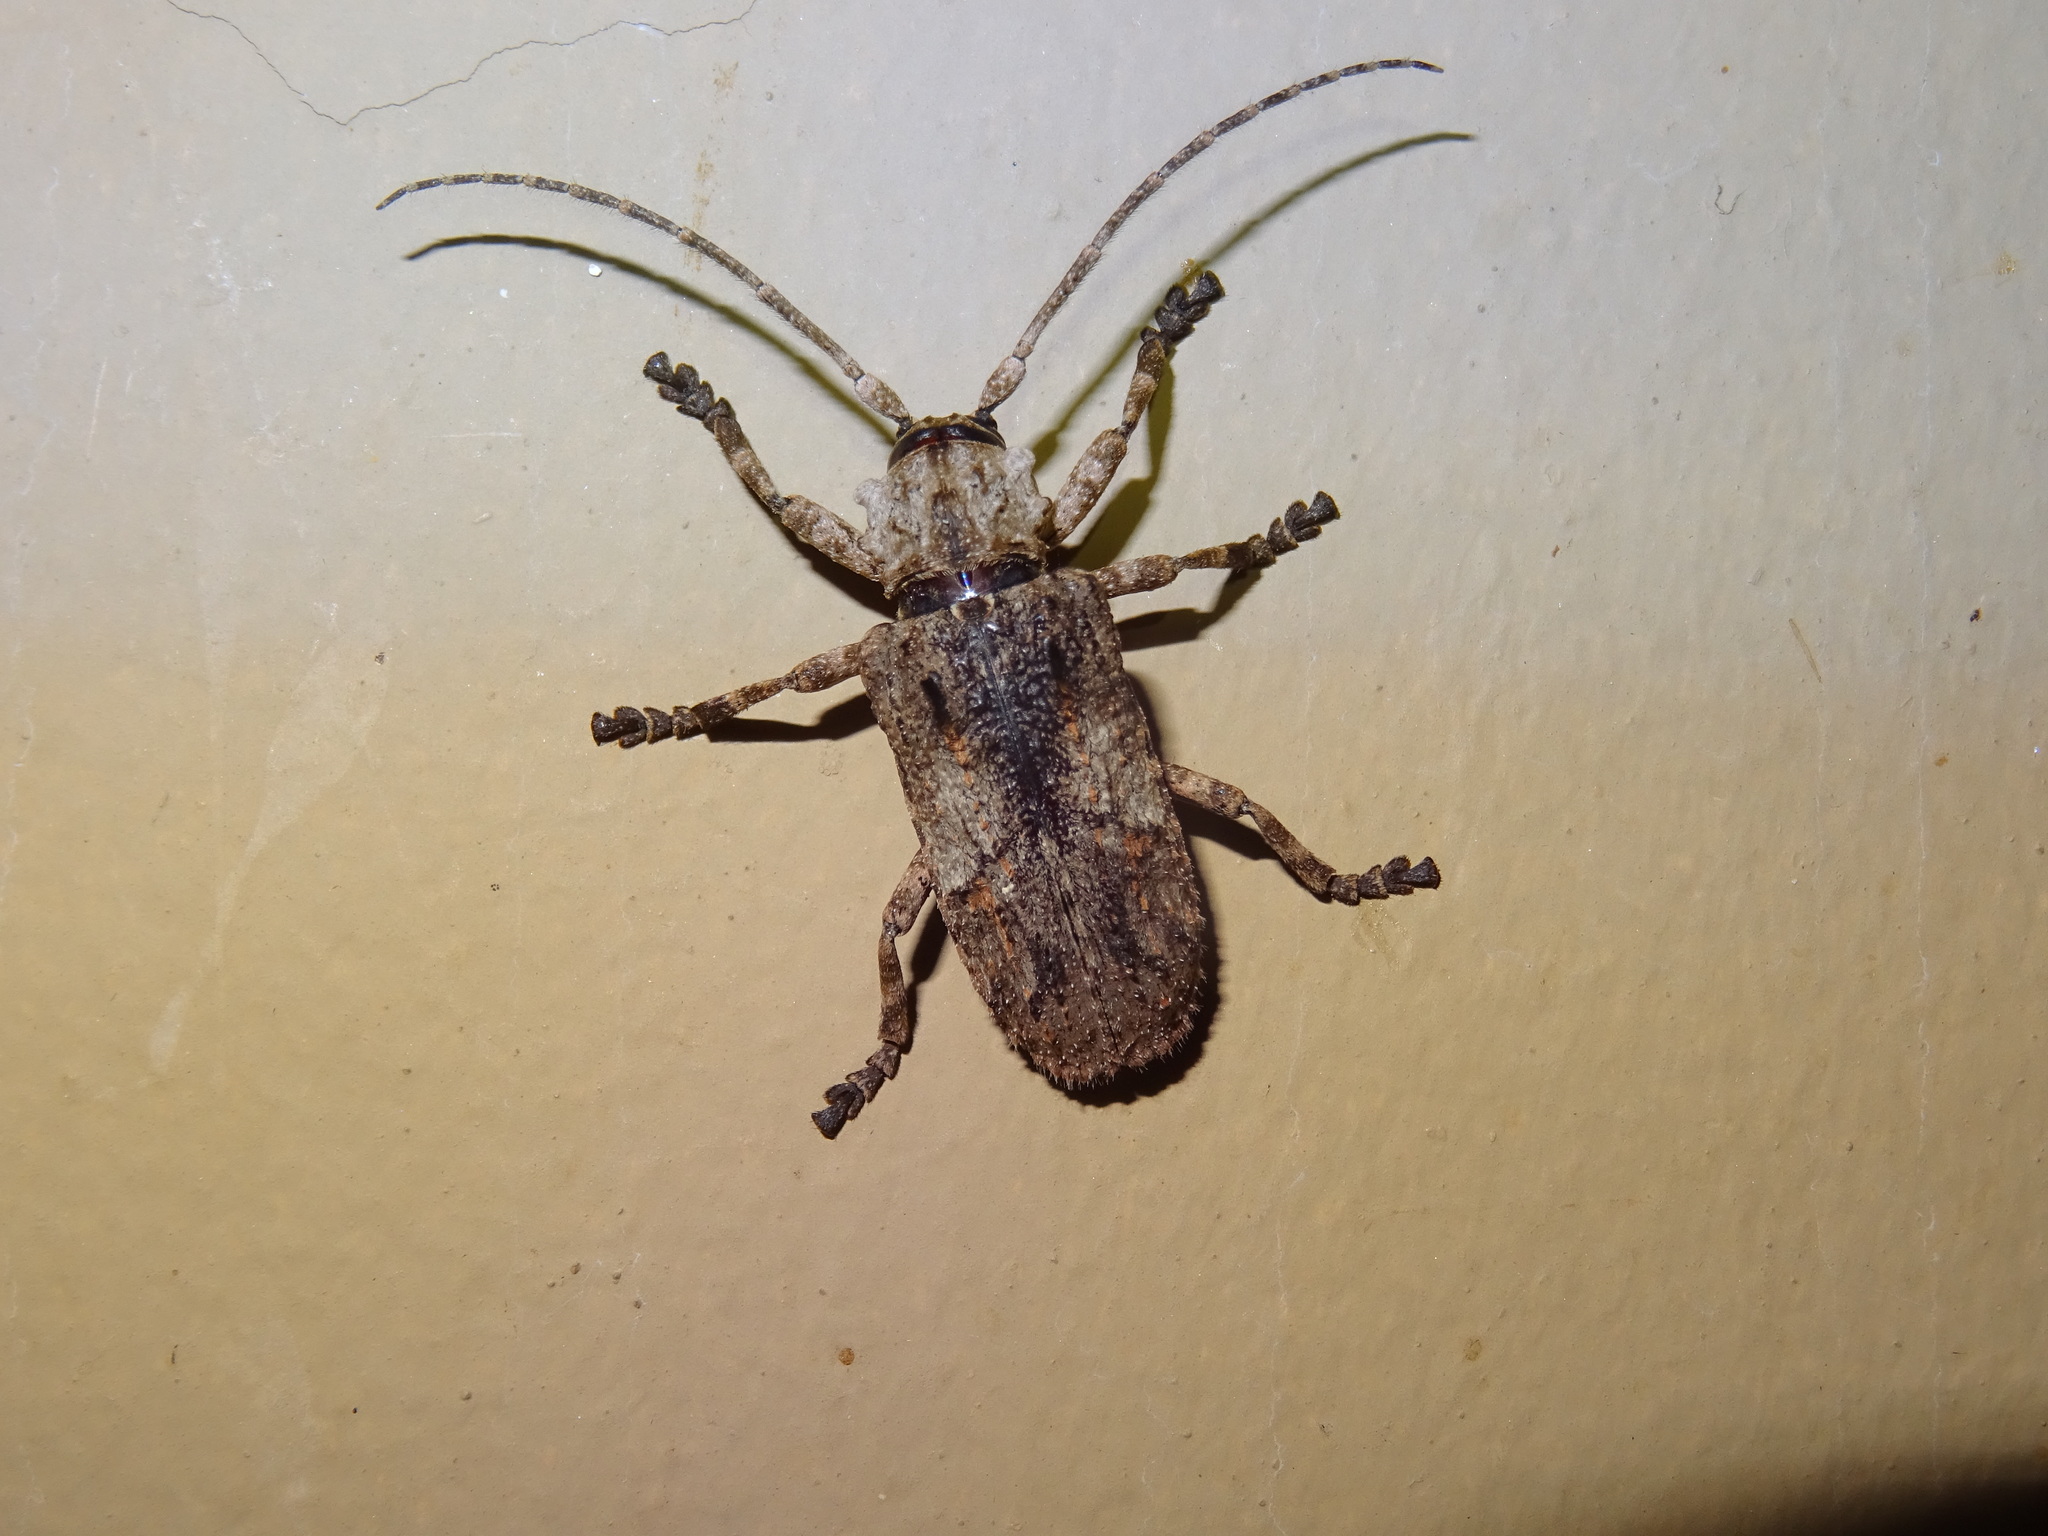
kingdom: Animalia
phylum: Arthropoda
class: Insecta
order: Coleoptera
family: Cerambycidae
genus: Hecyra
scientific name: Hecyra terrea
